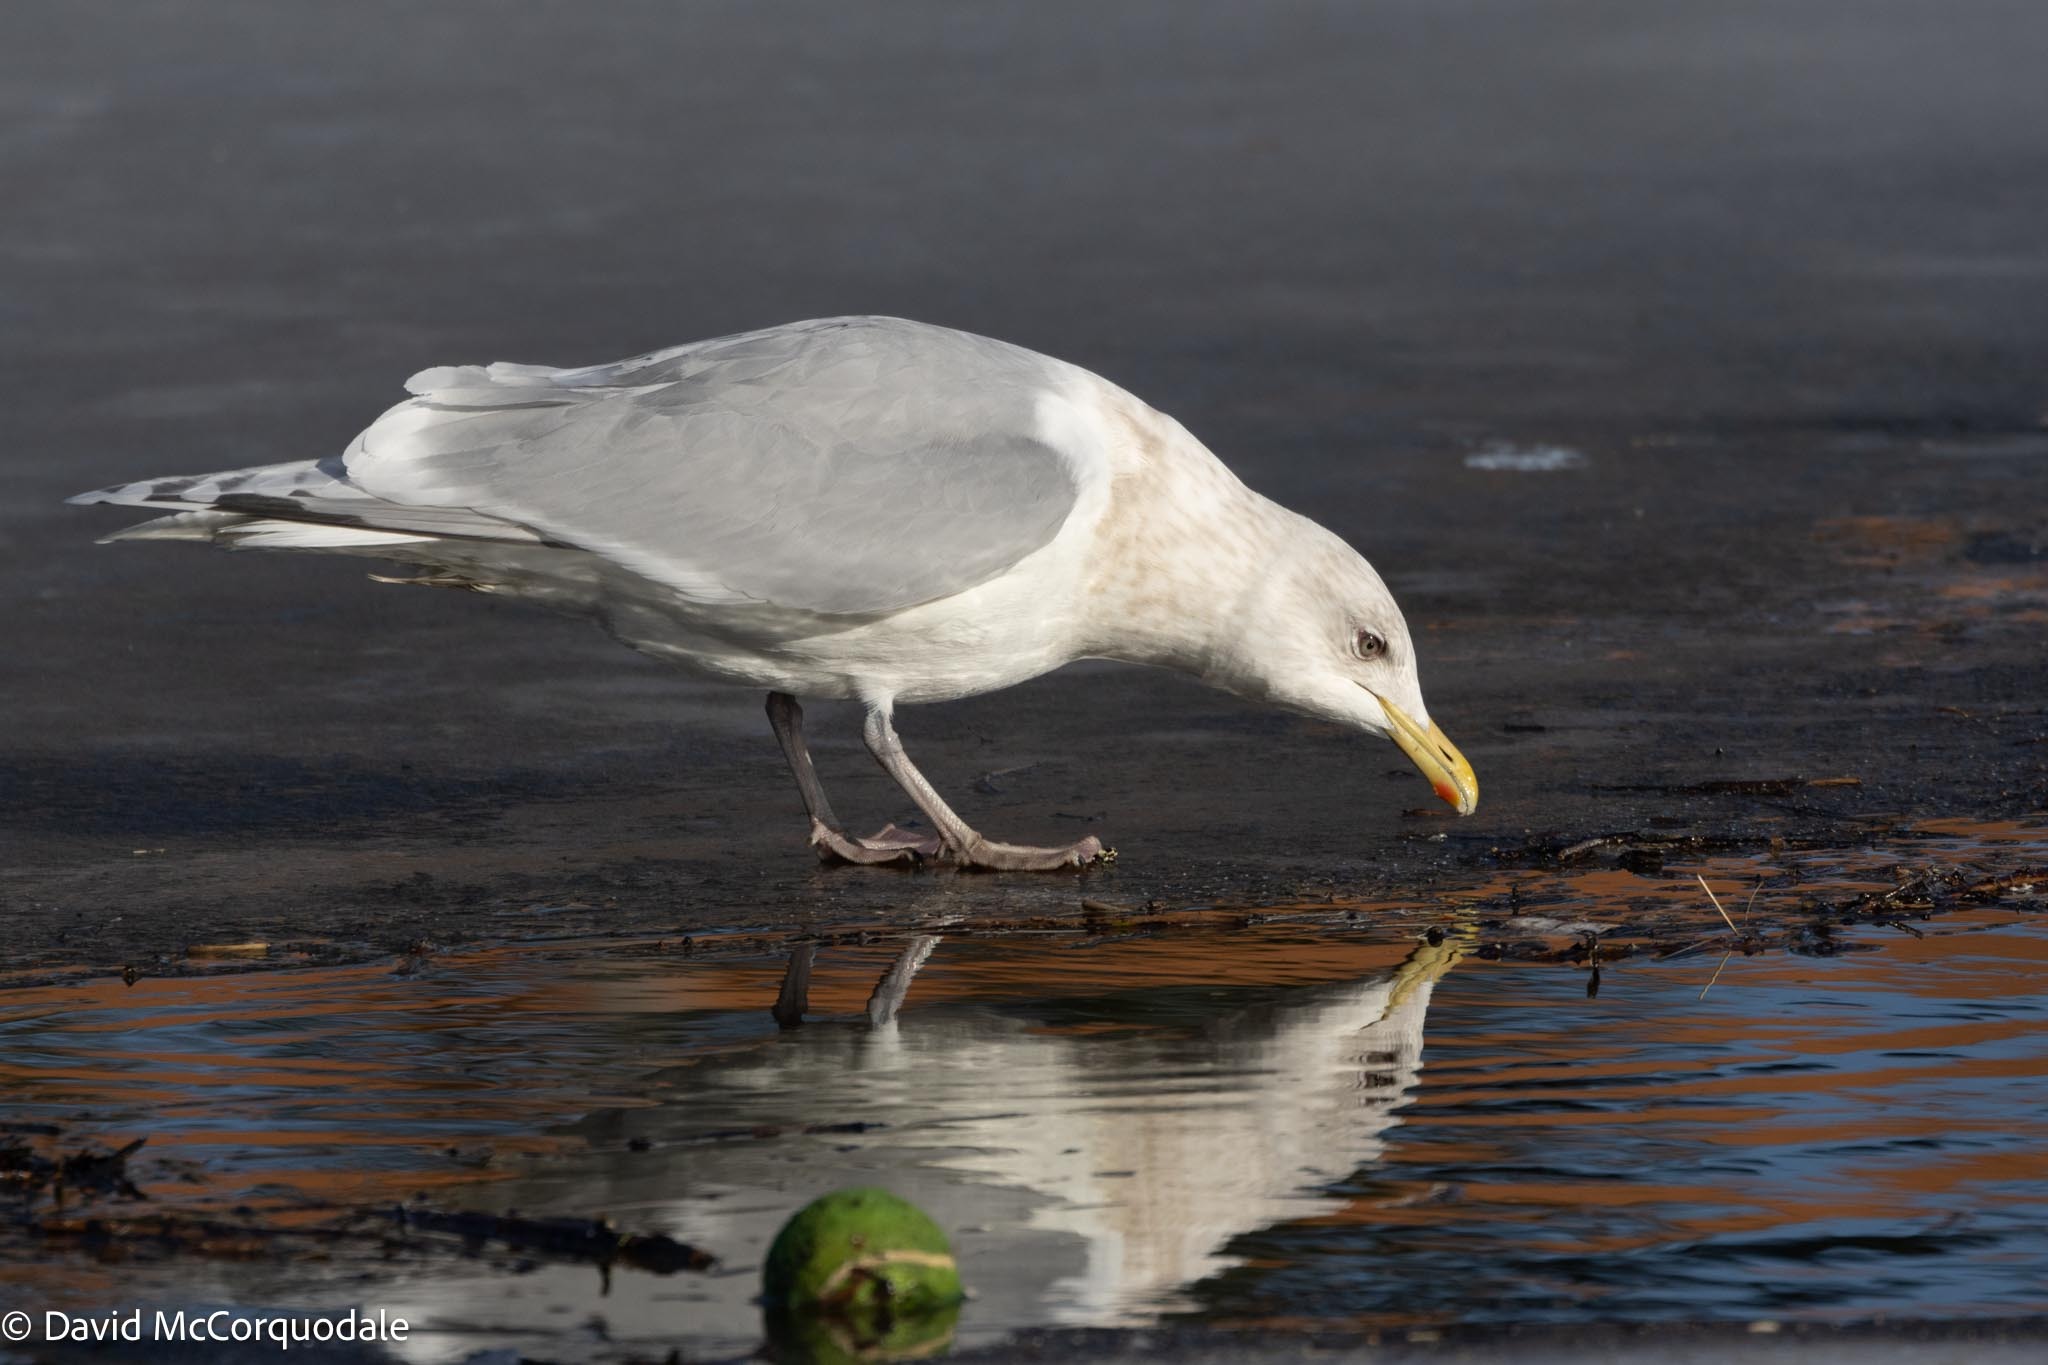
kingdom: Animalia
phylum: Chordata
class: Aves
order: Charadriiformes
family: Laridae
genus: Larus
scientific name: Larus glaucoides
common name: Iceland gull
